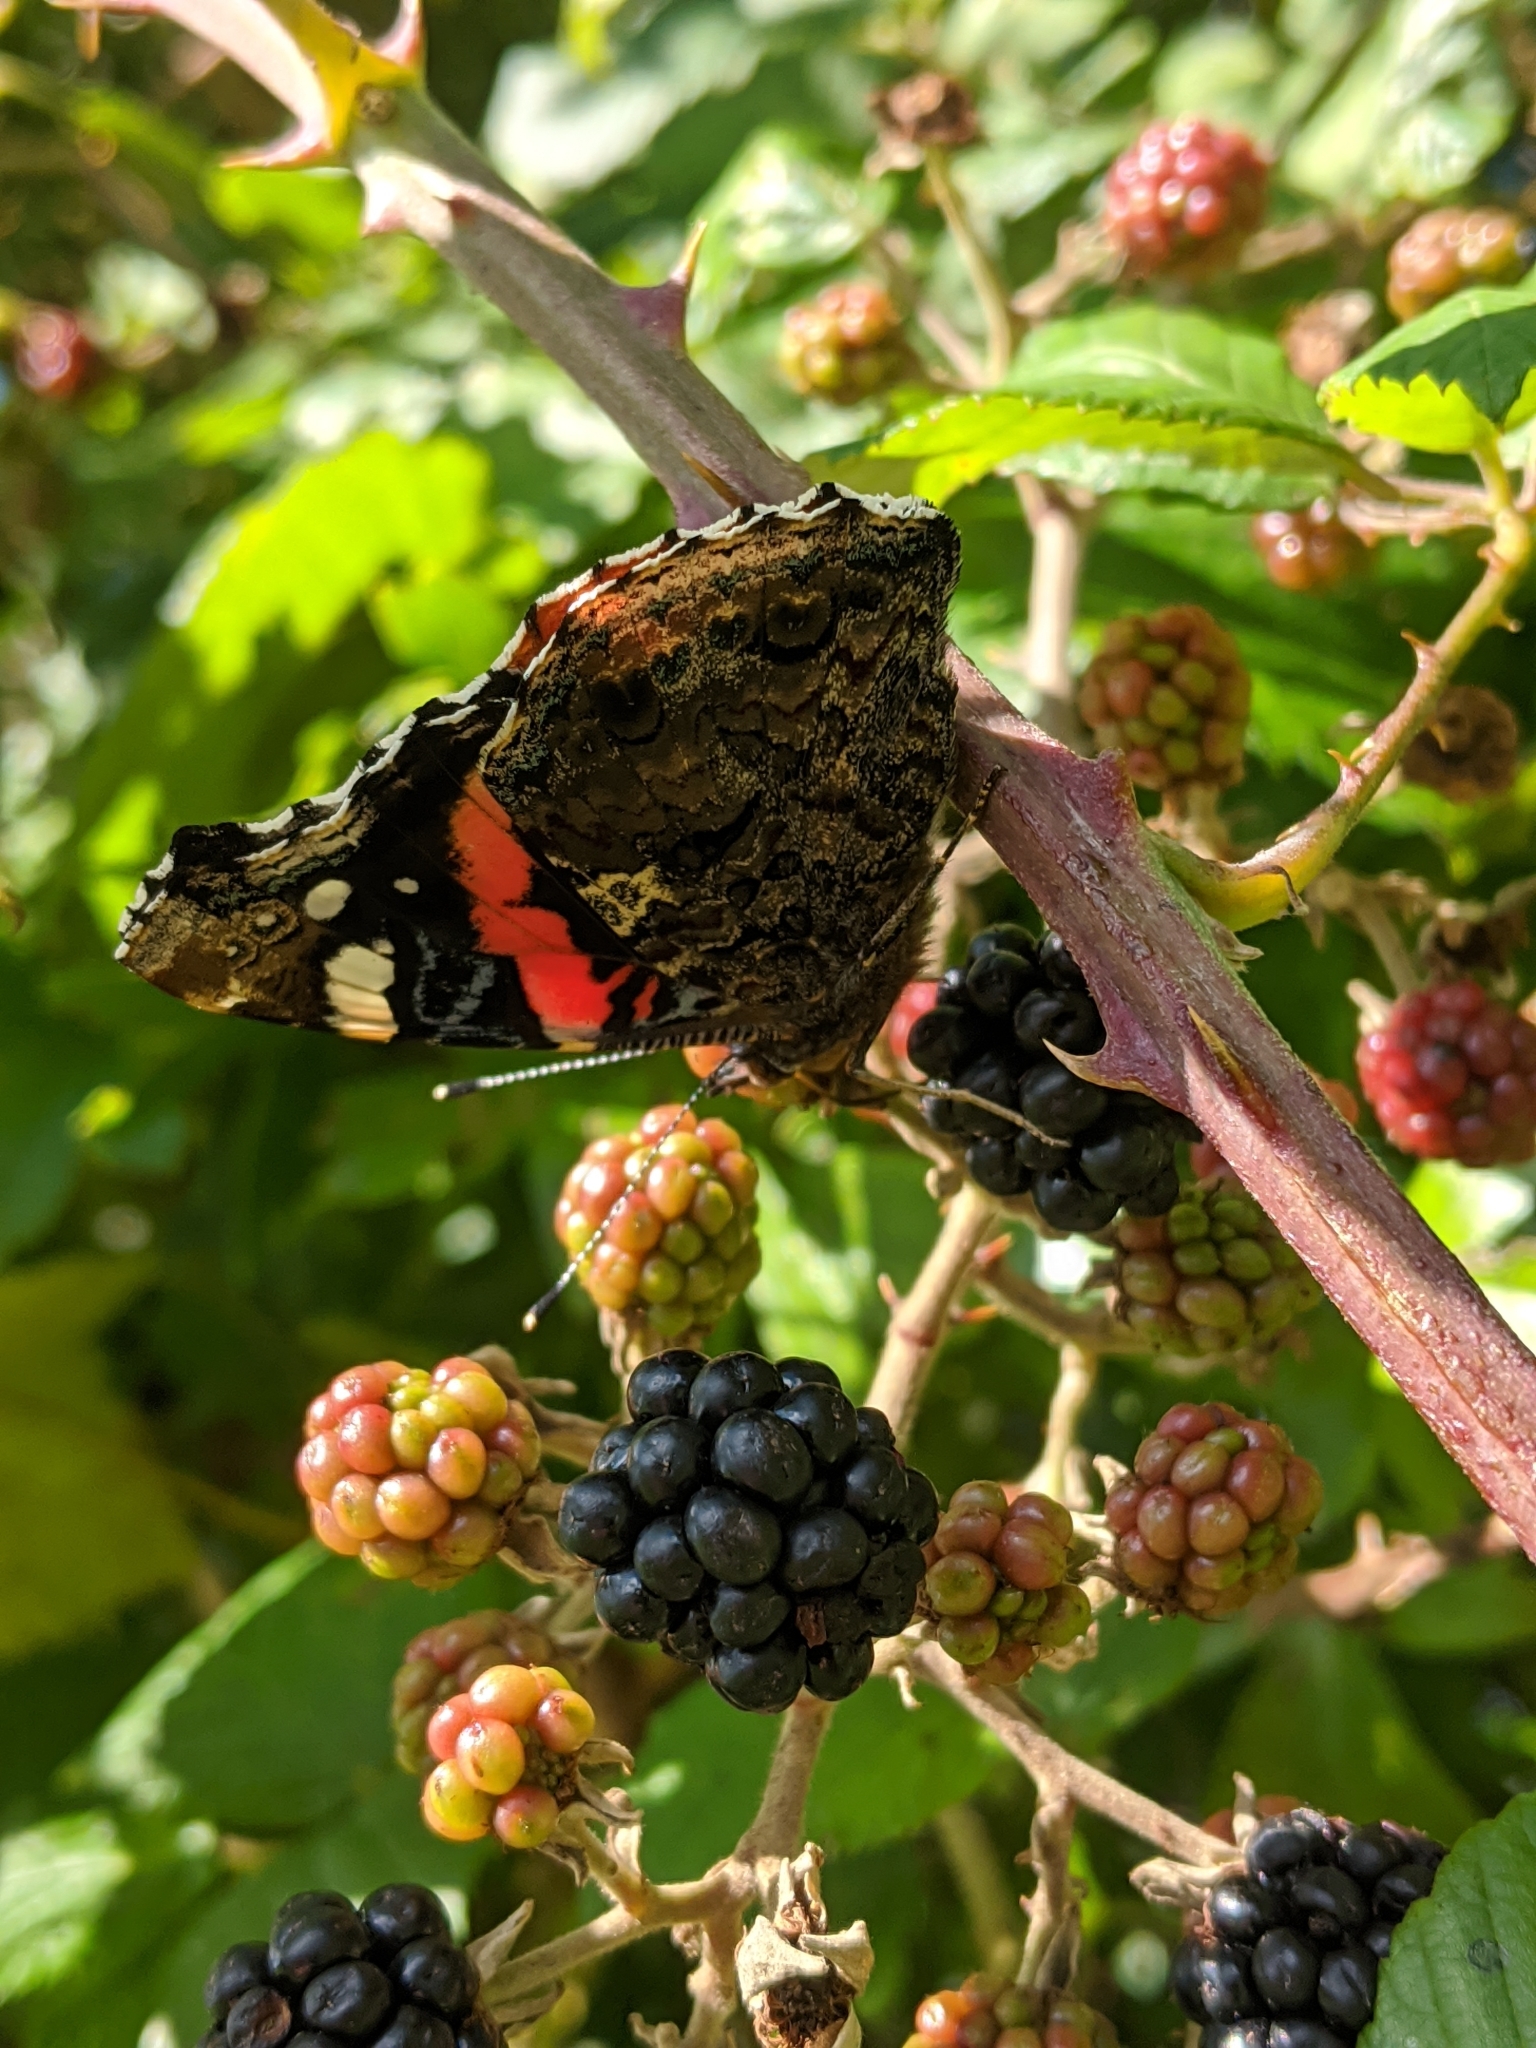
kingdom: Animalia
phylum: Arthropoda
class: Insecta
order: Lepidoptera
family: Nymphalidae
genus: Vanessa
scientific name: Vanessa atalanta
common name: Red admiral
